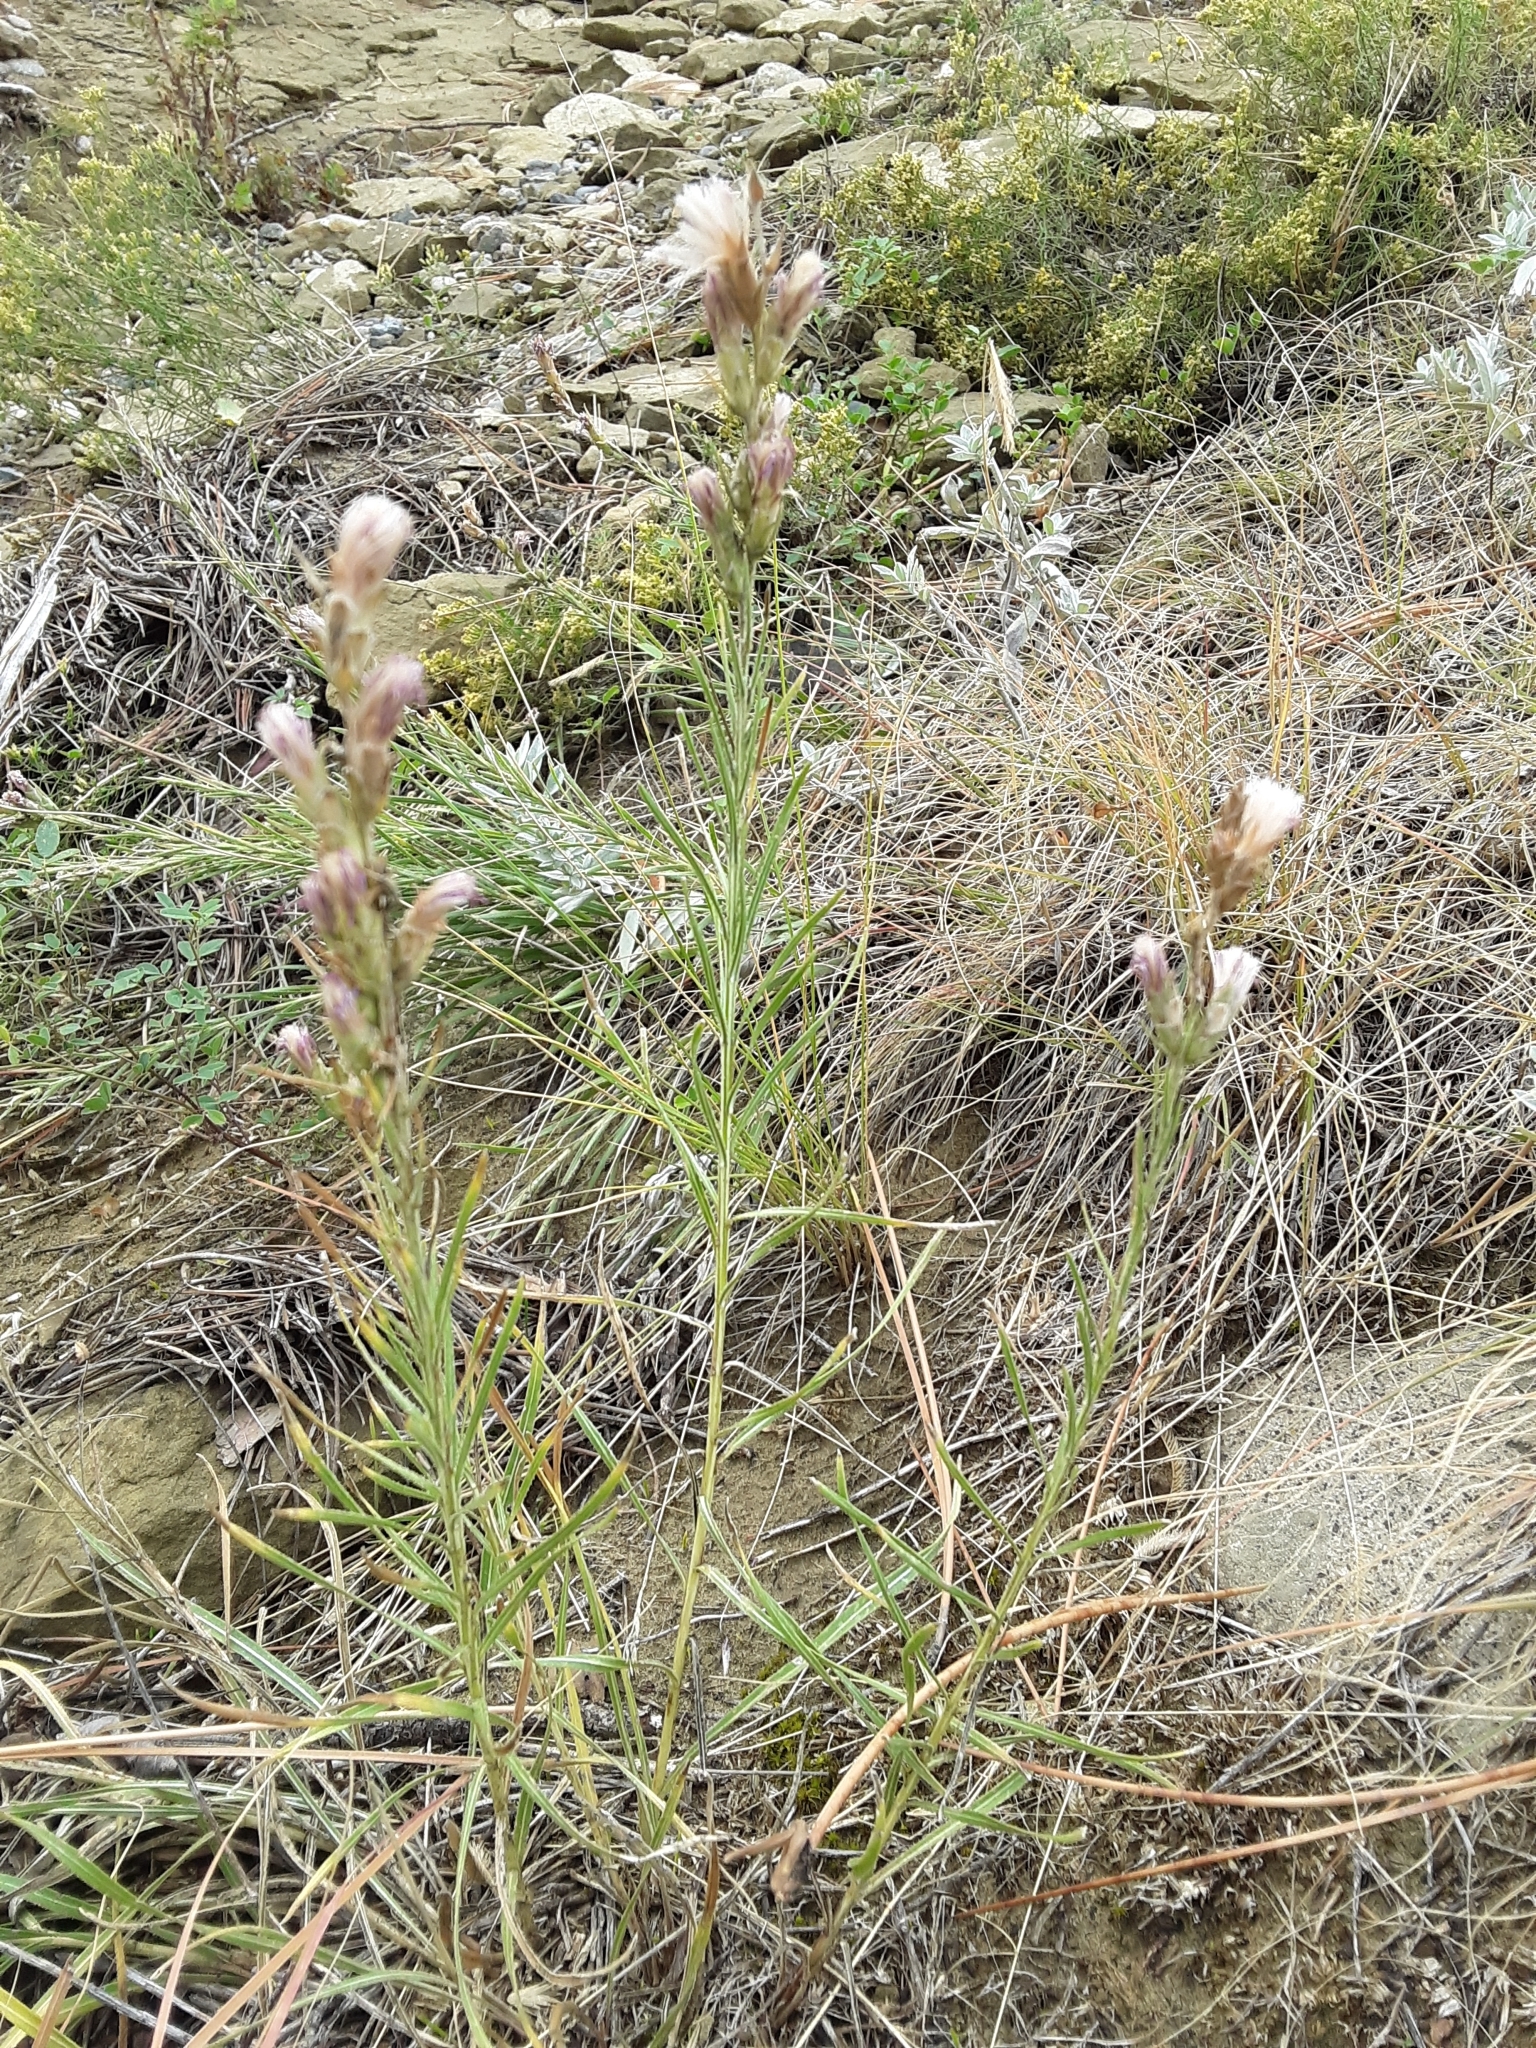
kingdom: Plantae
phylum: Tracheophyta
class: Magnoliopsida
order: Asterales
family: Asteraceae
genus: Liatris
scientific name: Liatris punctata
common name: Dotted gayfeather
